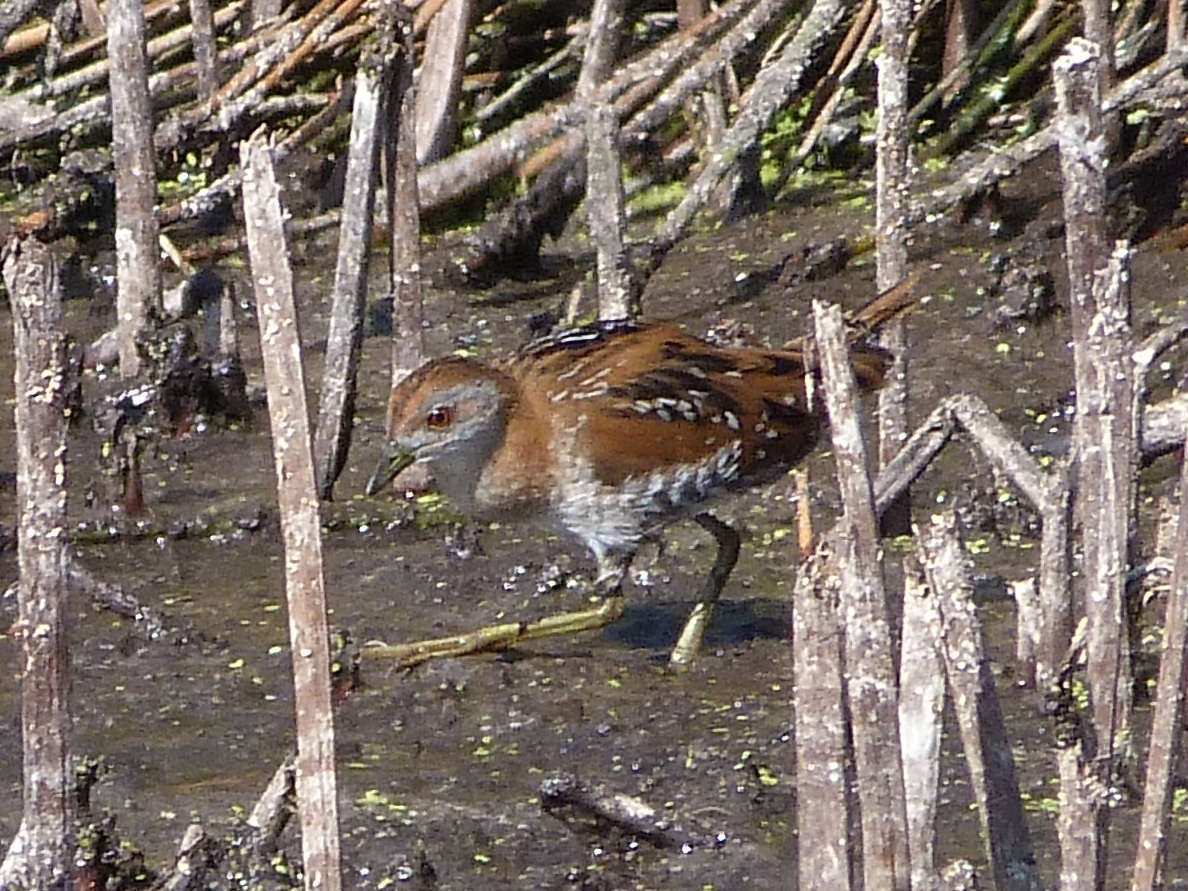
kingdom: Animalia
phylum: Chordata
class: Aves
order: Gruiformes
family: Rallidae
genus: Porzana
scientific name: Porzana pusilla
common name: Baillon's crake
